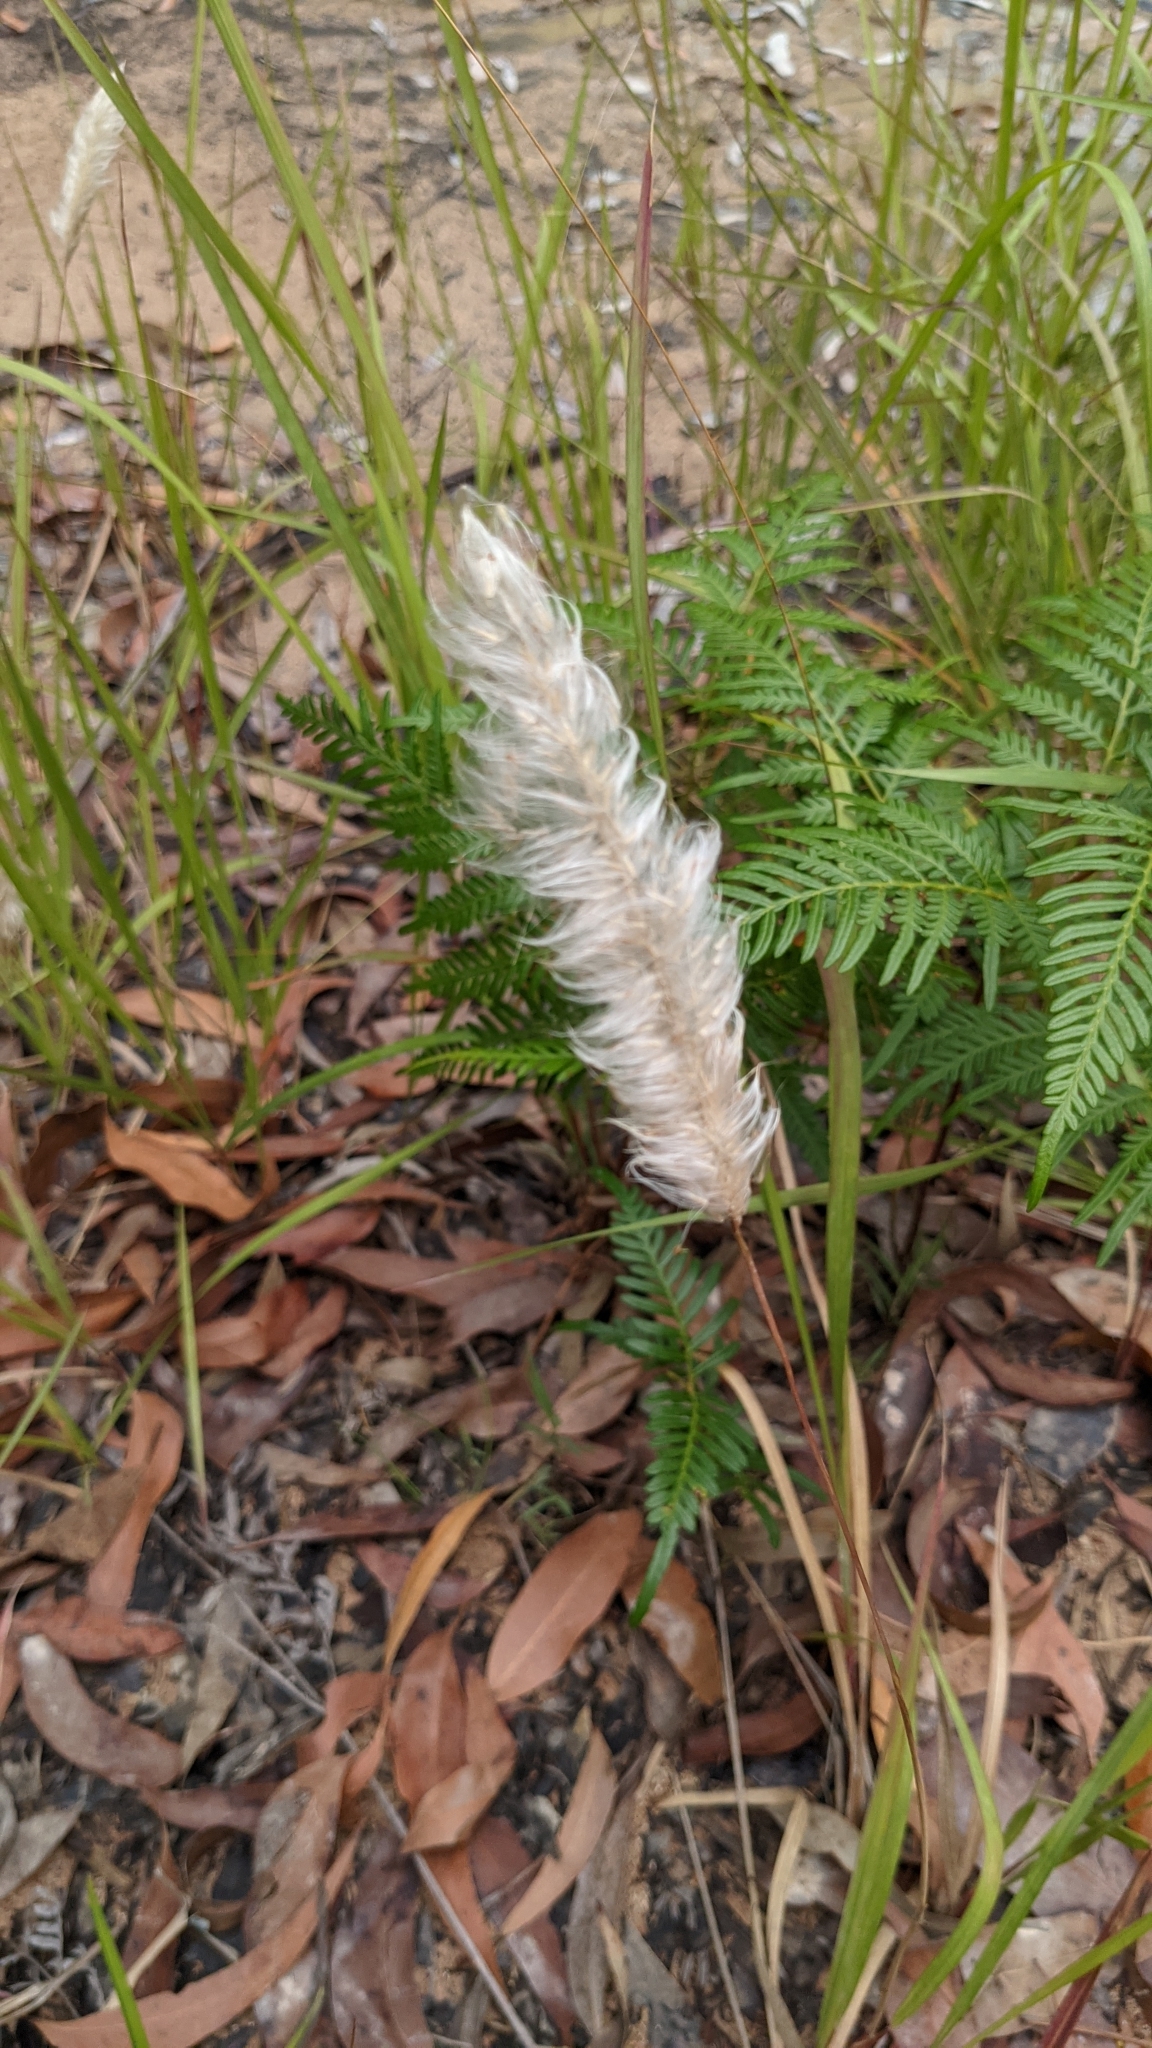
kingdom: Plantae
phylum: Tracheophyta
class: Liliopsida
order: Poales
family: Poaceae
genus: Imperata
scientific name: Imperata cylindrica
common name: Cogongrass
